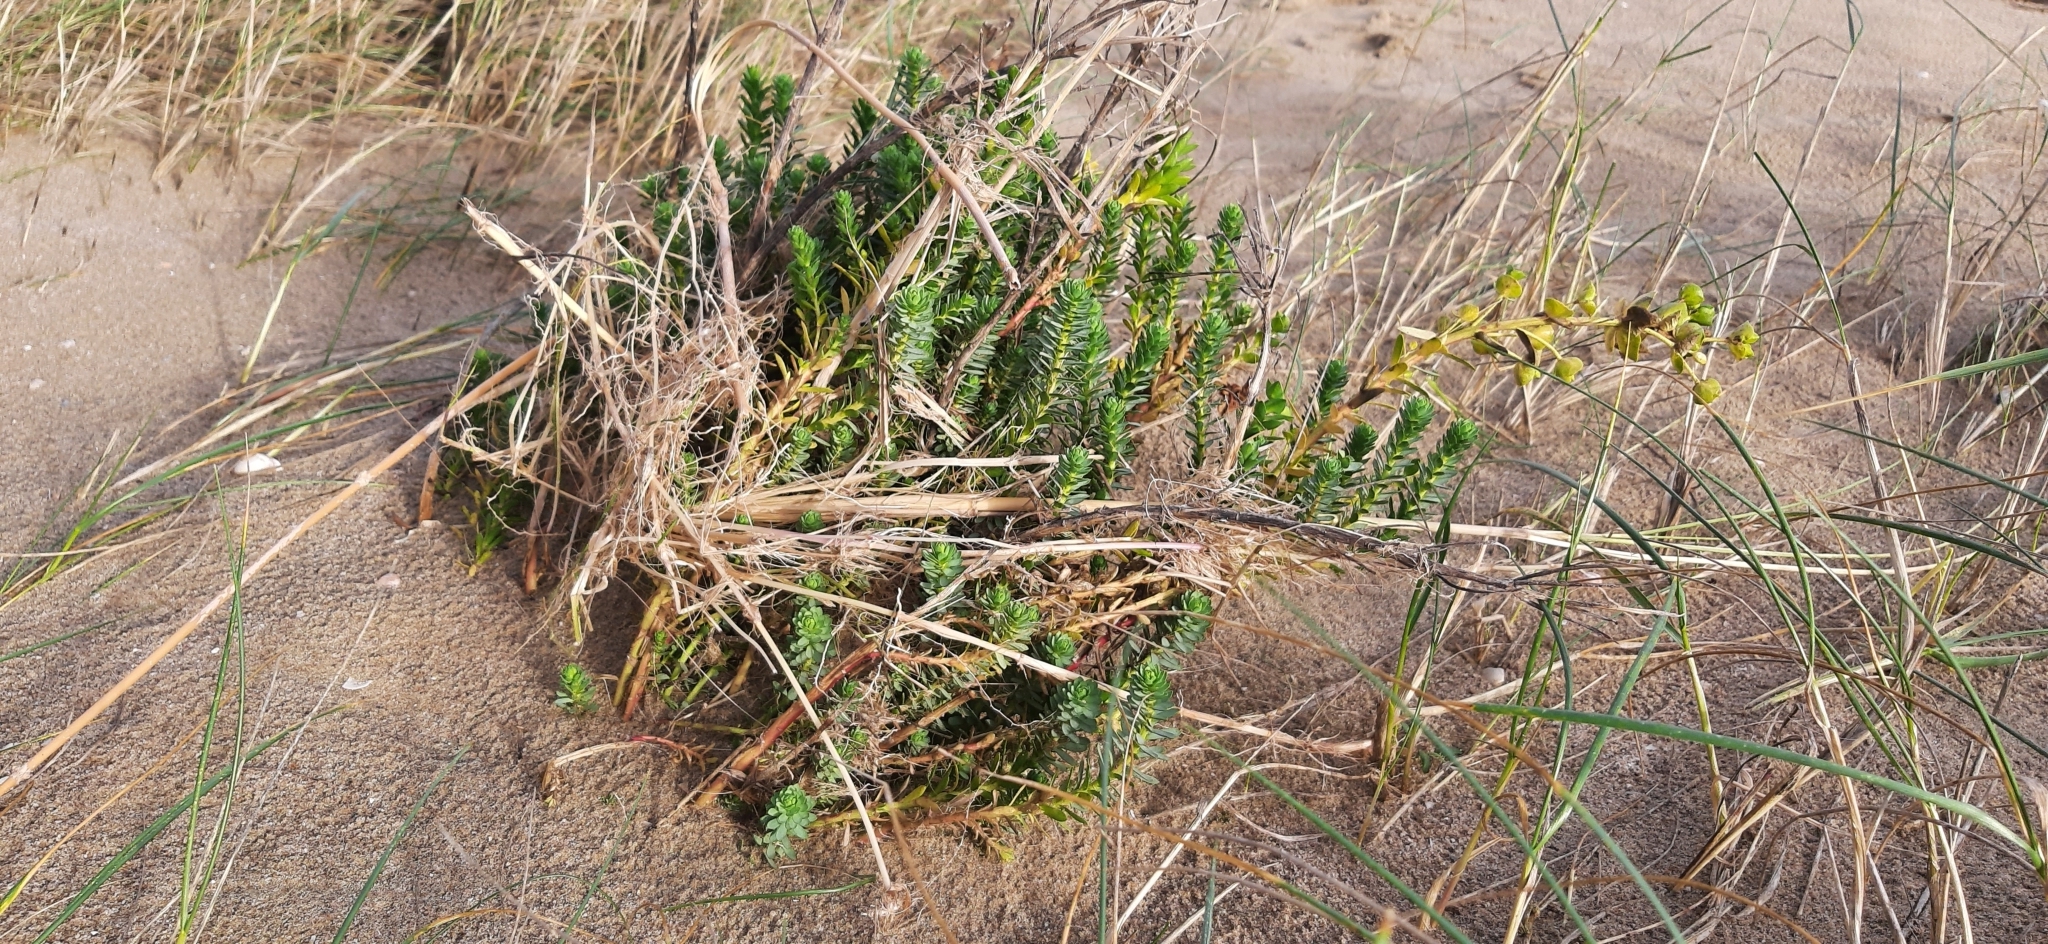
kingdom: Plantae
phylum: Tracheophyta
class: Magnoliopsida
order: Malpighiales
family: Euphorbiaceae
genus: Euphorbia
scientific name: Euphorbia paralias
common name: Sea spurge
